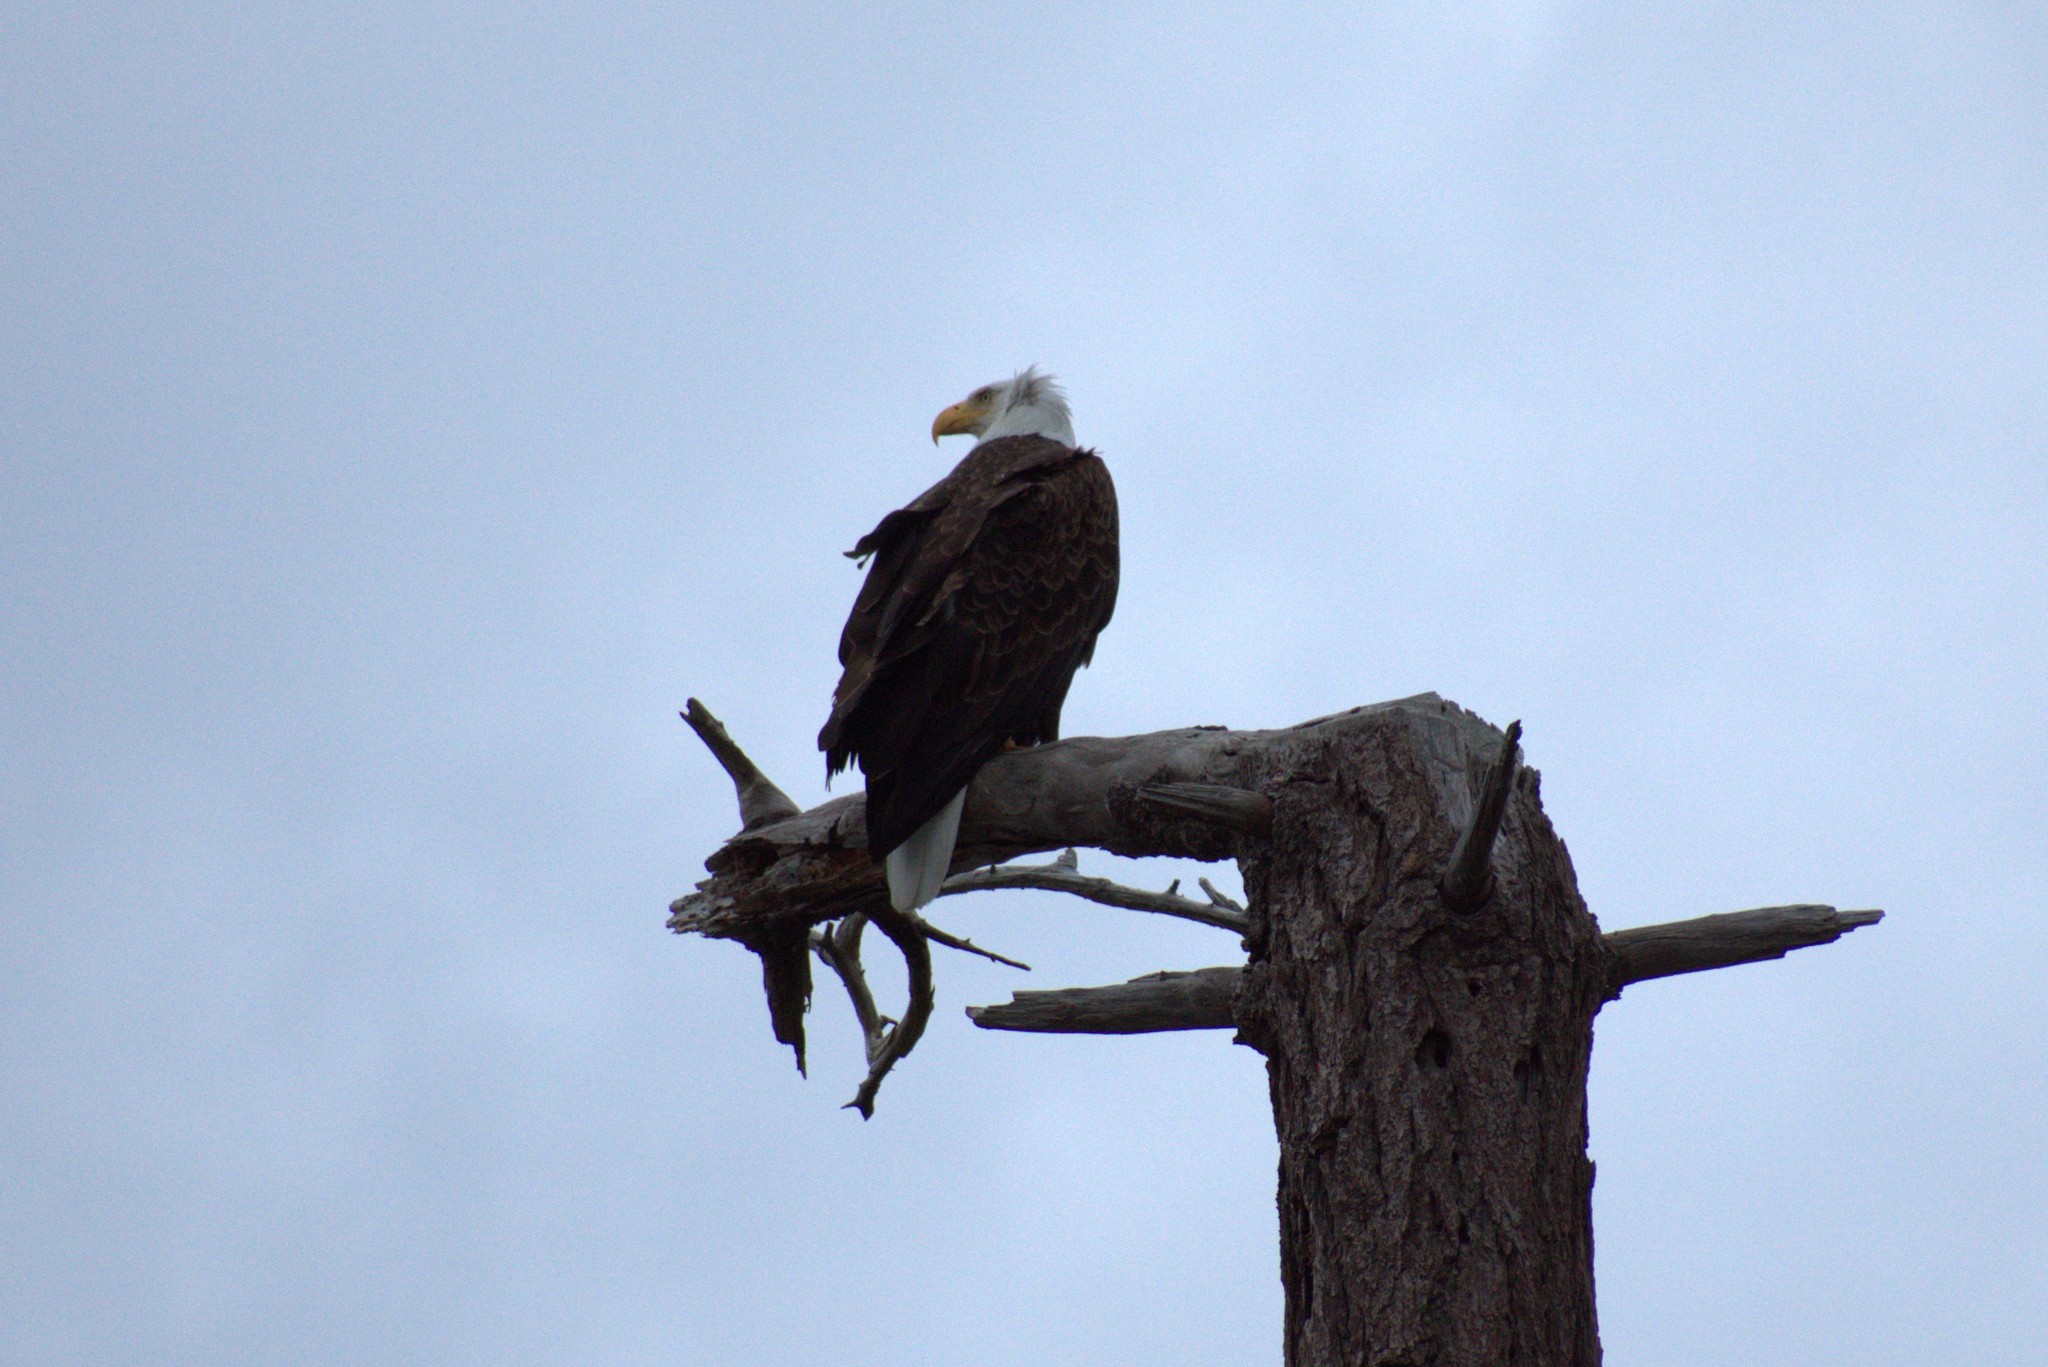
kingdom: Animalia
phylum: Chordata
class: Aves
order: Accipitriformes
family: Accipitridae
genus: Haliaeetus
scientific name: Haliaeetus leucocephalus
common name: Bald eagle
